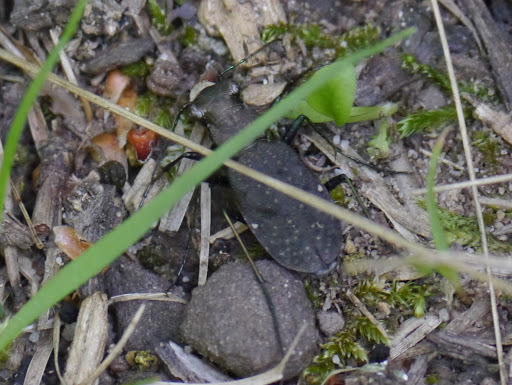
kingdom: Animalia
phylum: Arthropoda
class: Insecta
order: Coleoptera
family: Carabidae
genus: Cylindera
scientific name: Cylindera unipunctata
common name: One-spotted tiger beetle
